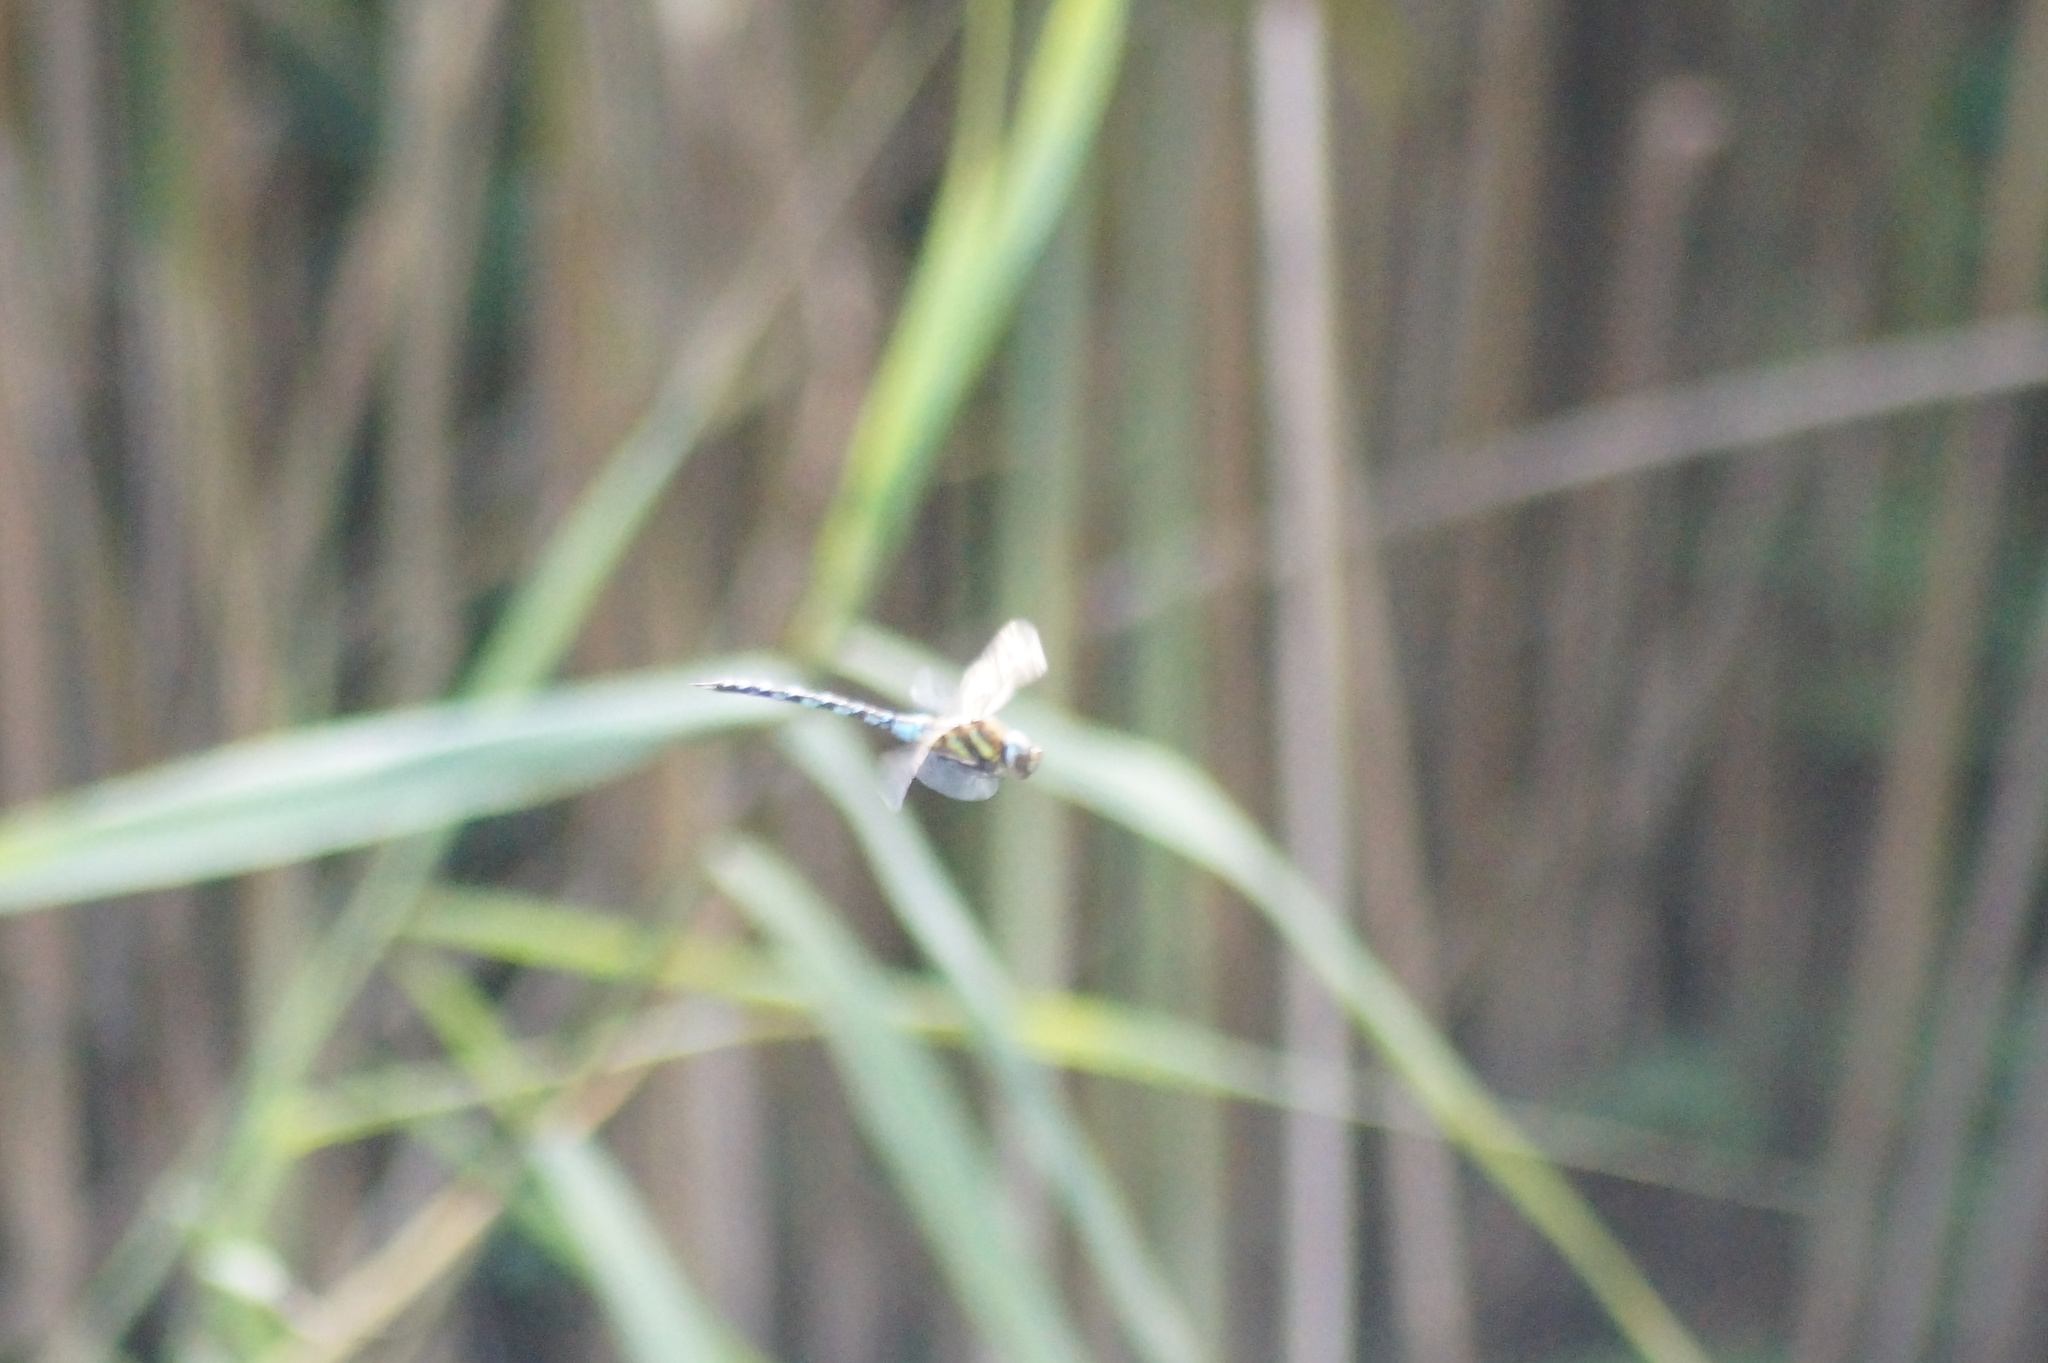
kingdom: Animalia
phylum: Arthropoda
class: Insecta
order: Odonata
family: Aeshnidae
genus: Aeshna
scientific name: Aeshna mixta
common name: Migrant hawker
